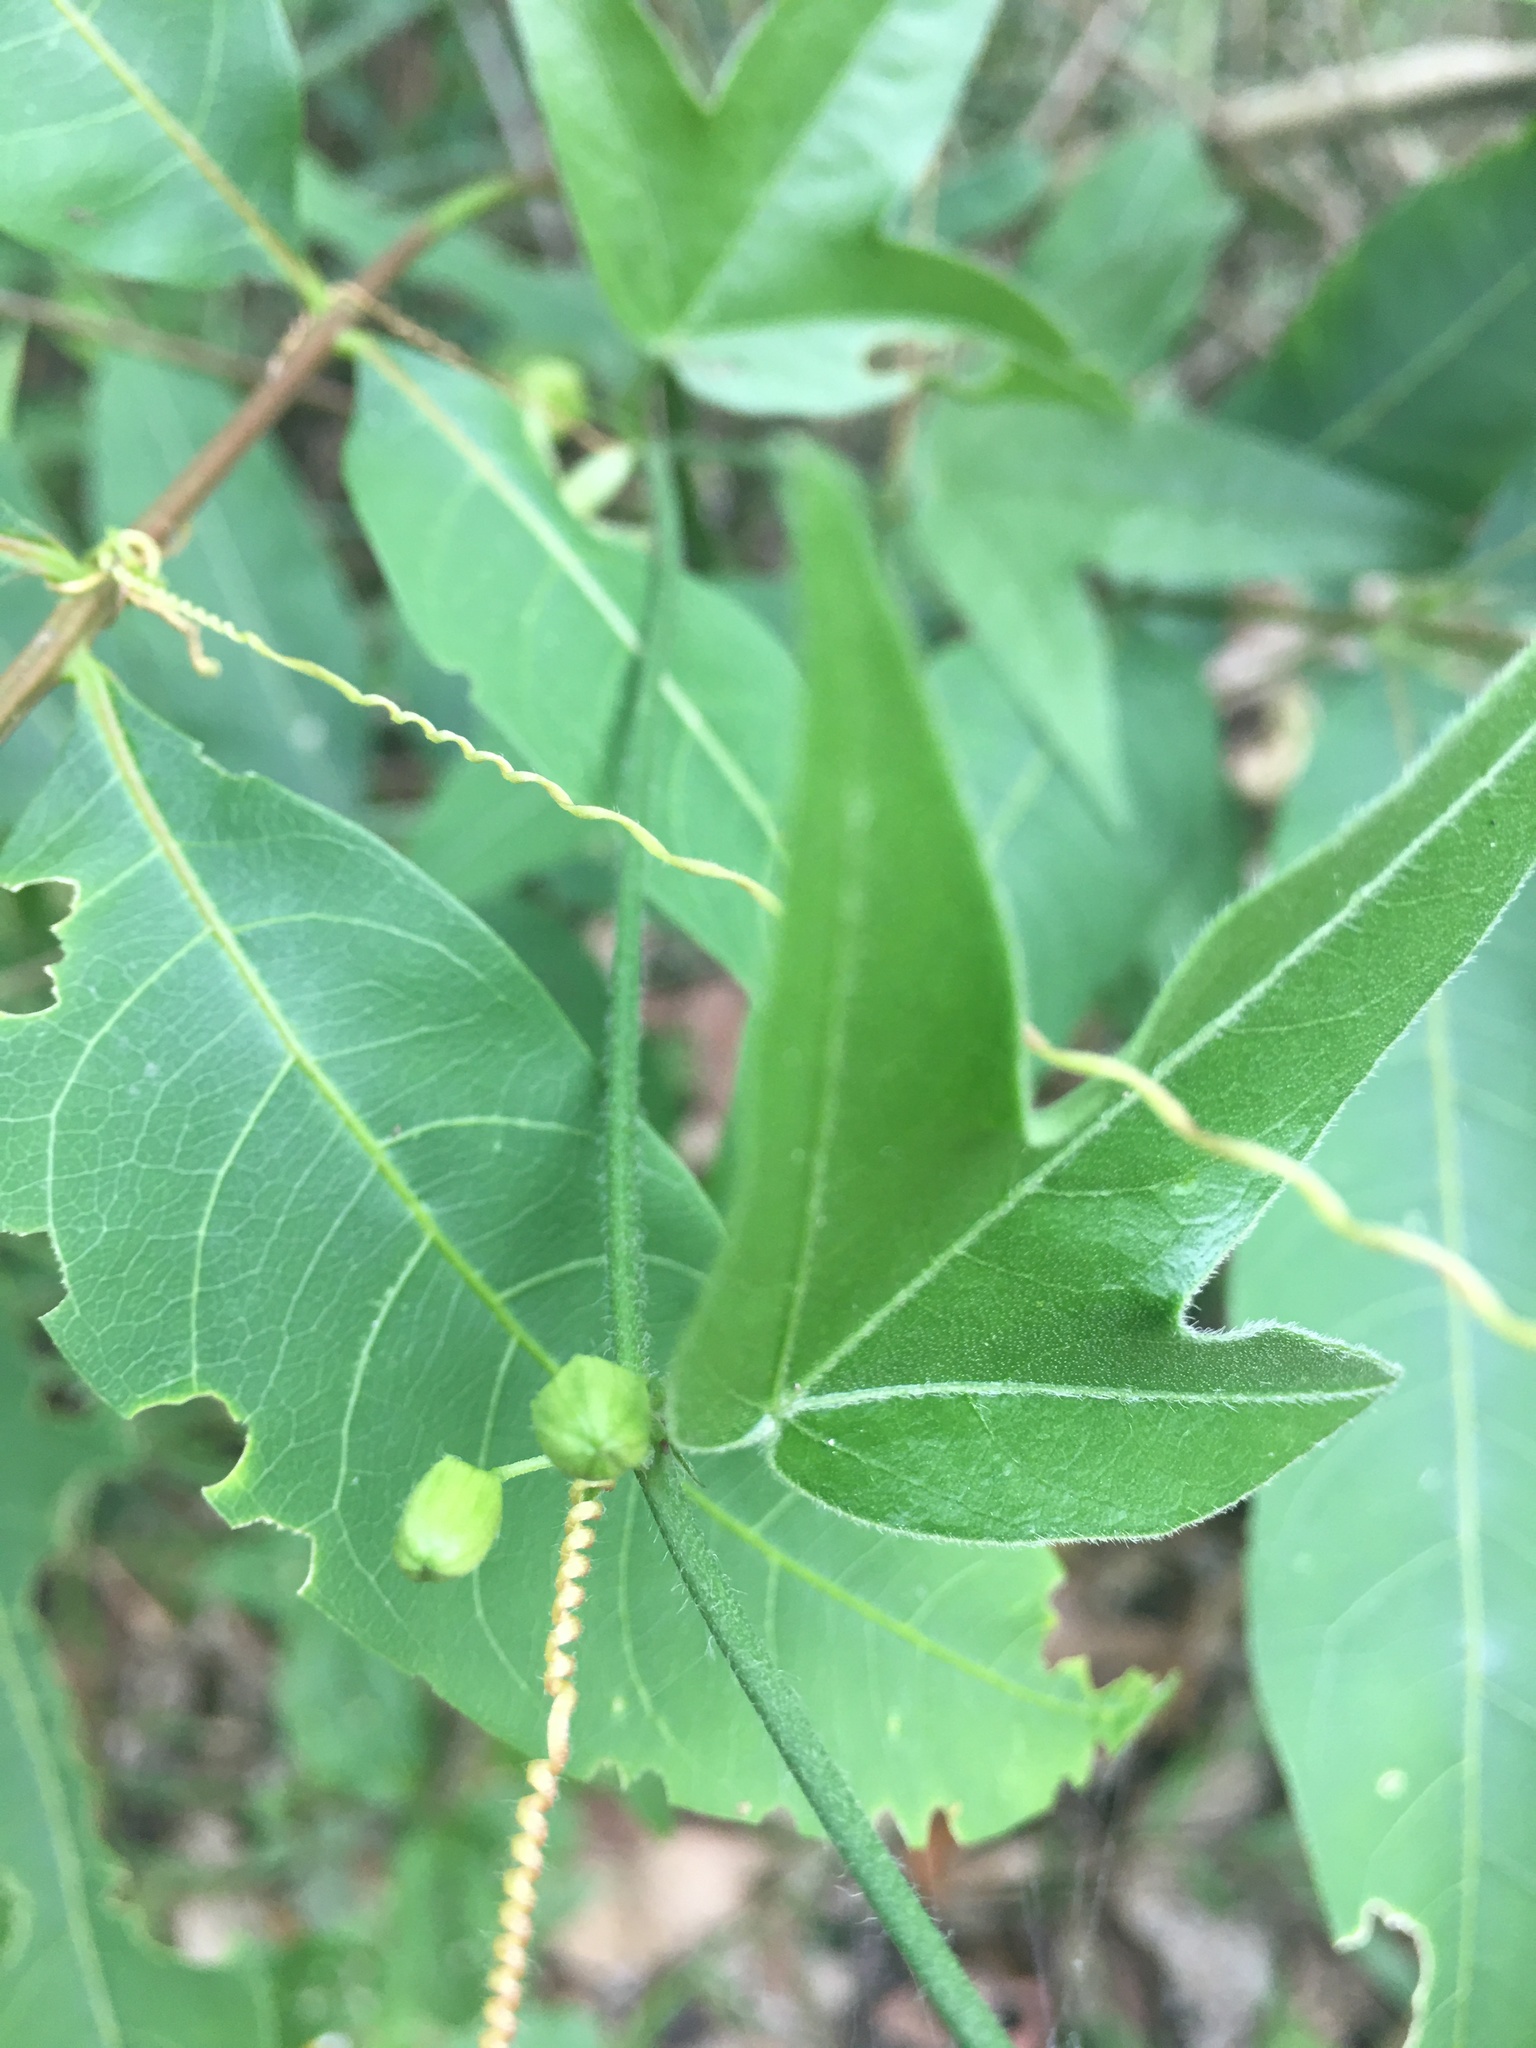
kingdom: Plantae
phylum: Tracheophyta
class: Magnoliopsida
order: Malpighiales
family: Passifloraceae
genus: Passiflora
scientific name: Passiflora suberosa
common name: Wild passionfruit
